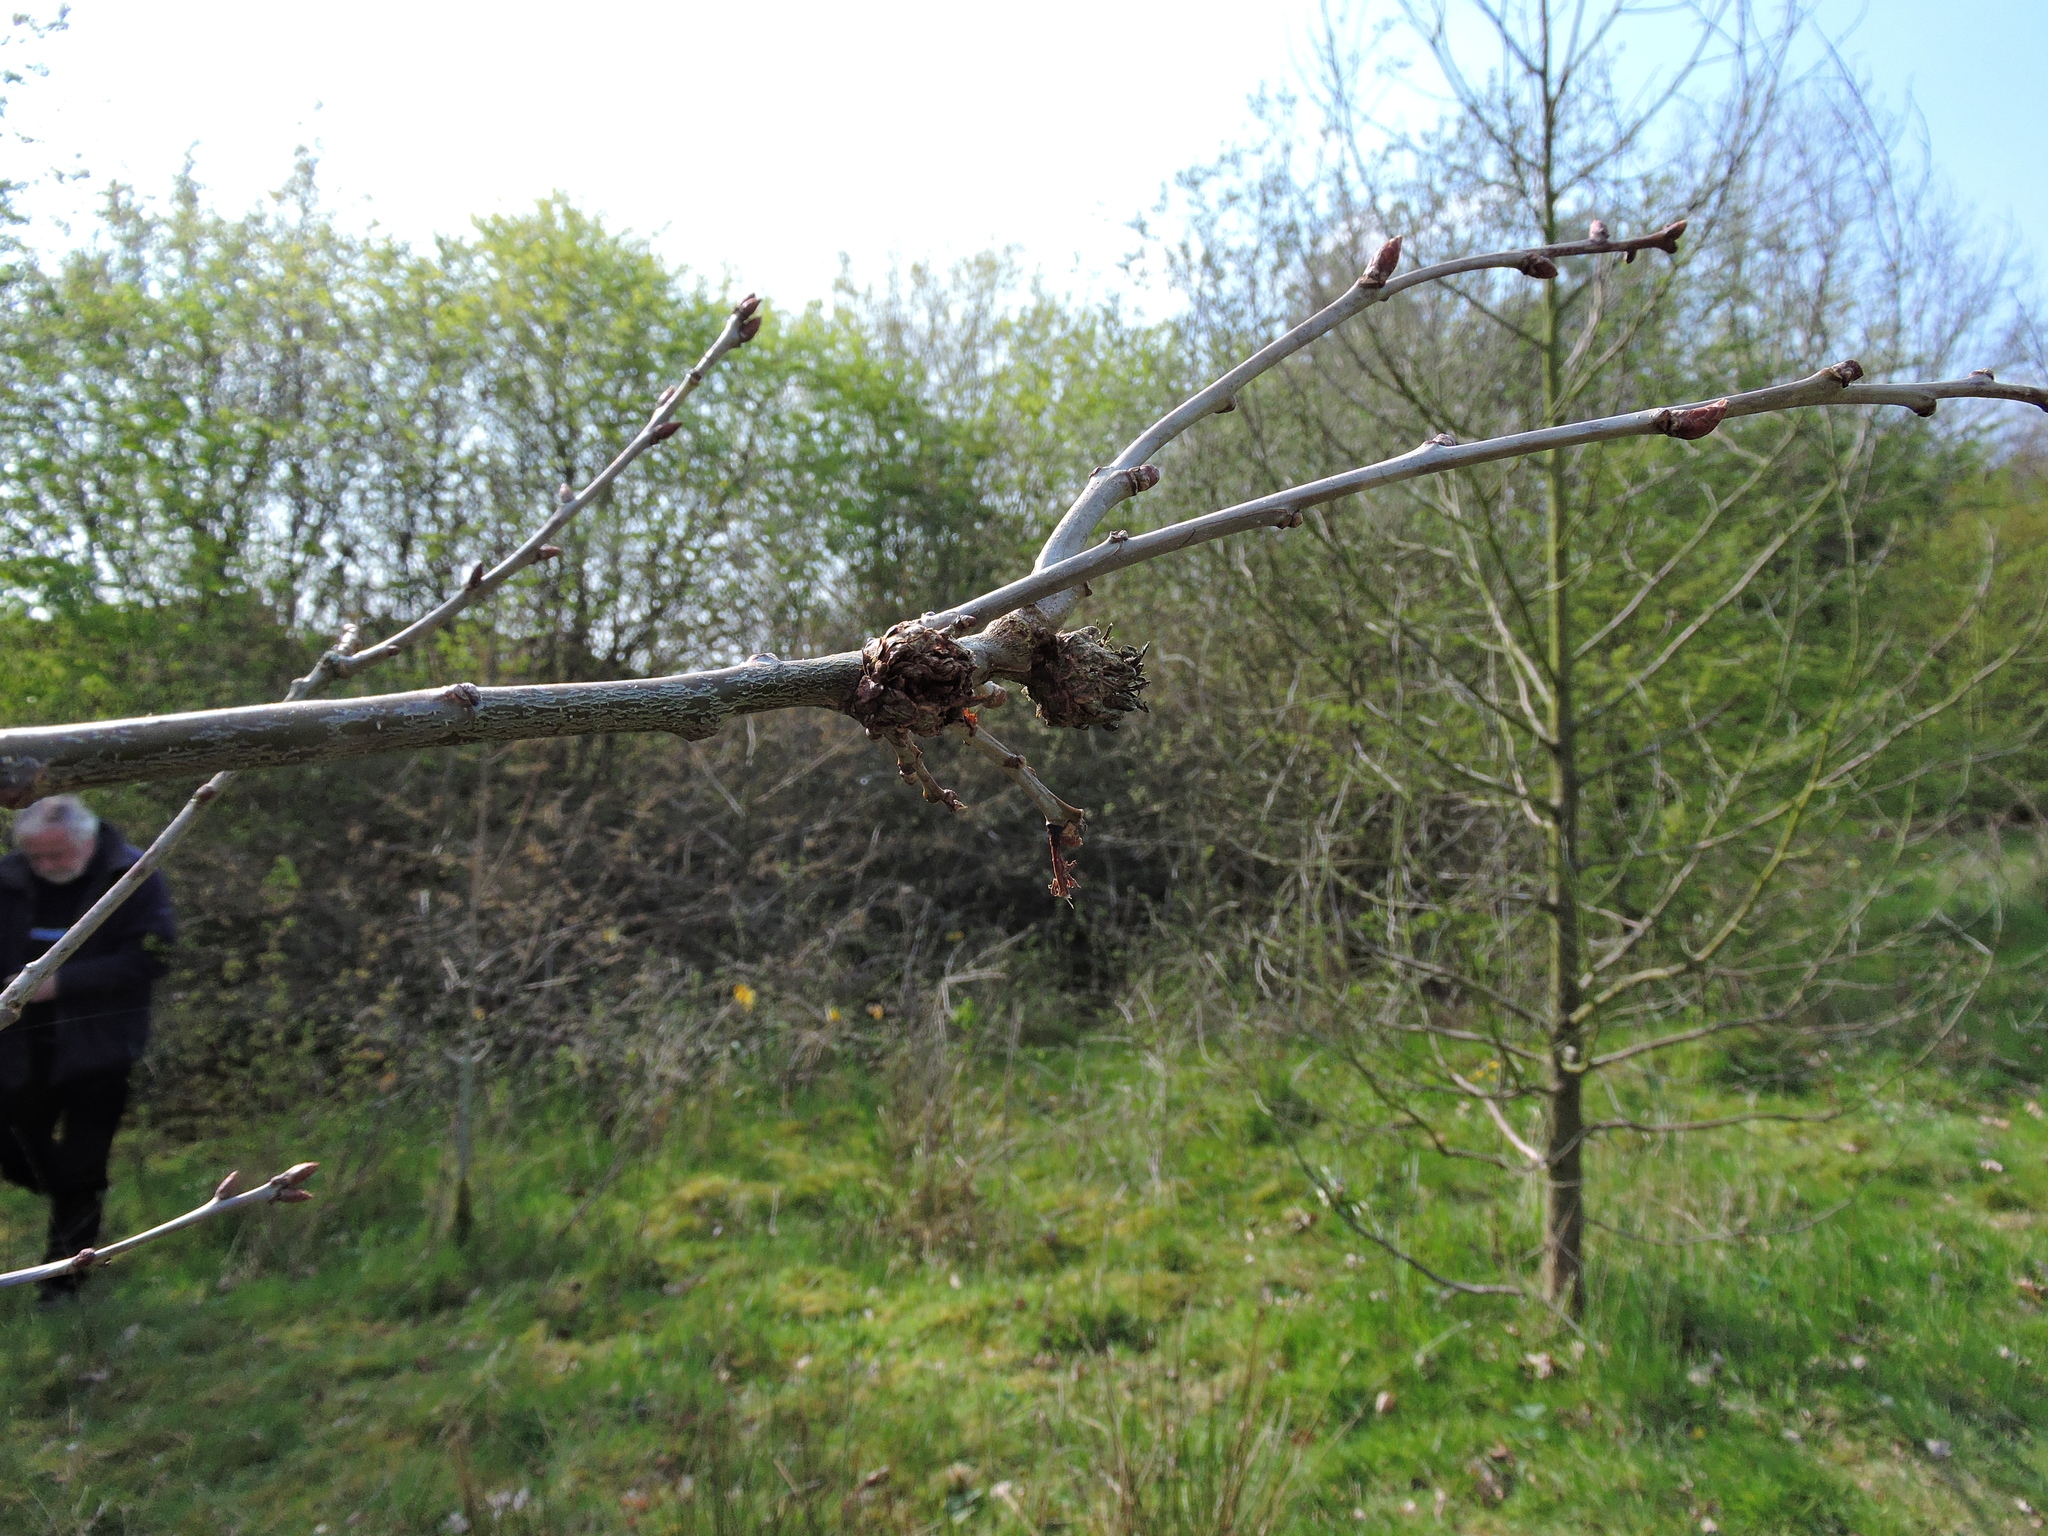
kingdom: Animalia
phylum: Arthropoda
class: Insecta
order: Hymenoptera
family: Cynipidae
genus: Andricus
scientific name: Andricus foecundatrix
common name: Artichoke gall
